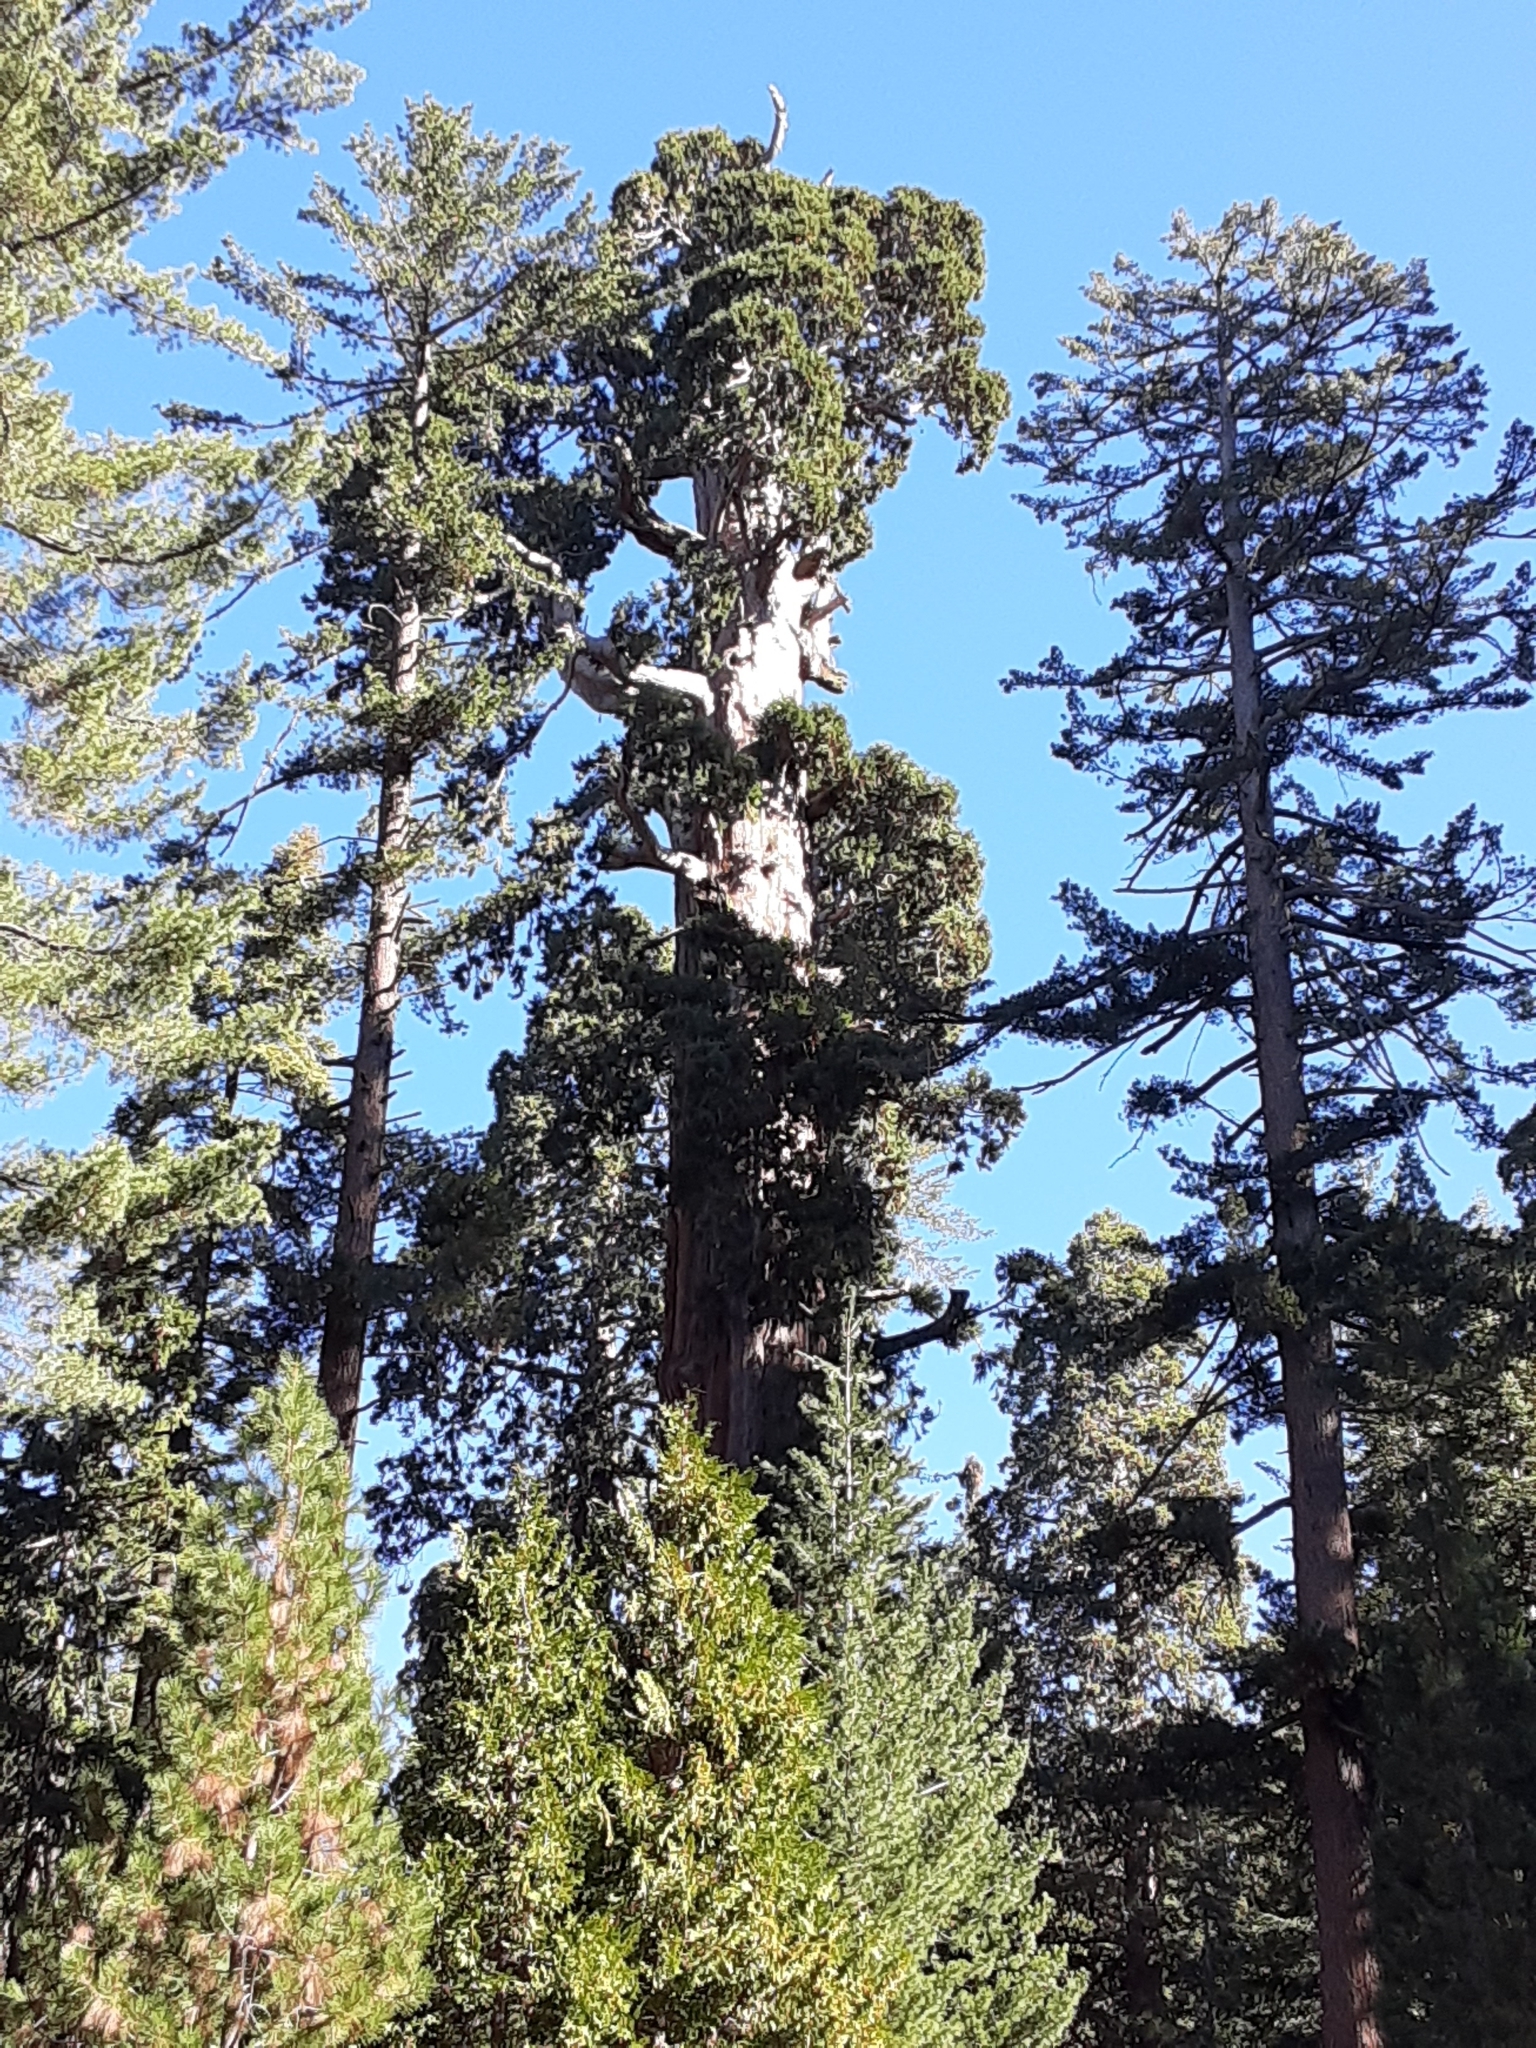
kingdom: Plantae
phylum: Tracheophyta
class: Pinopsida
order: Pinales
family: Cupressaceae
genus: Sequoiadendron
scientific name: Sequoiadendron giganteum
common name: Wellingtonia
